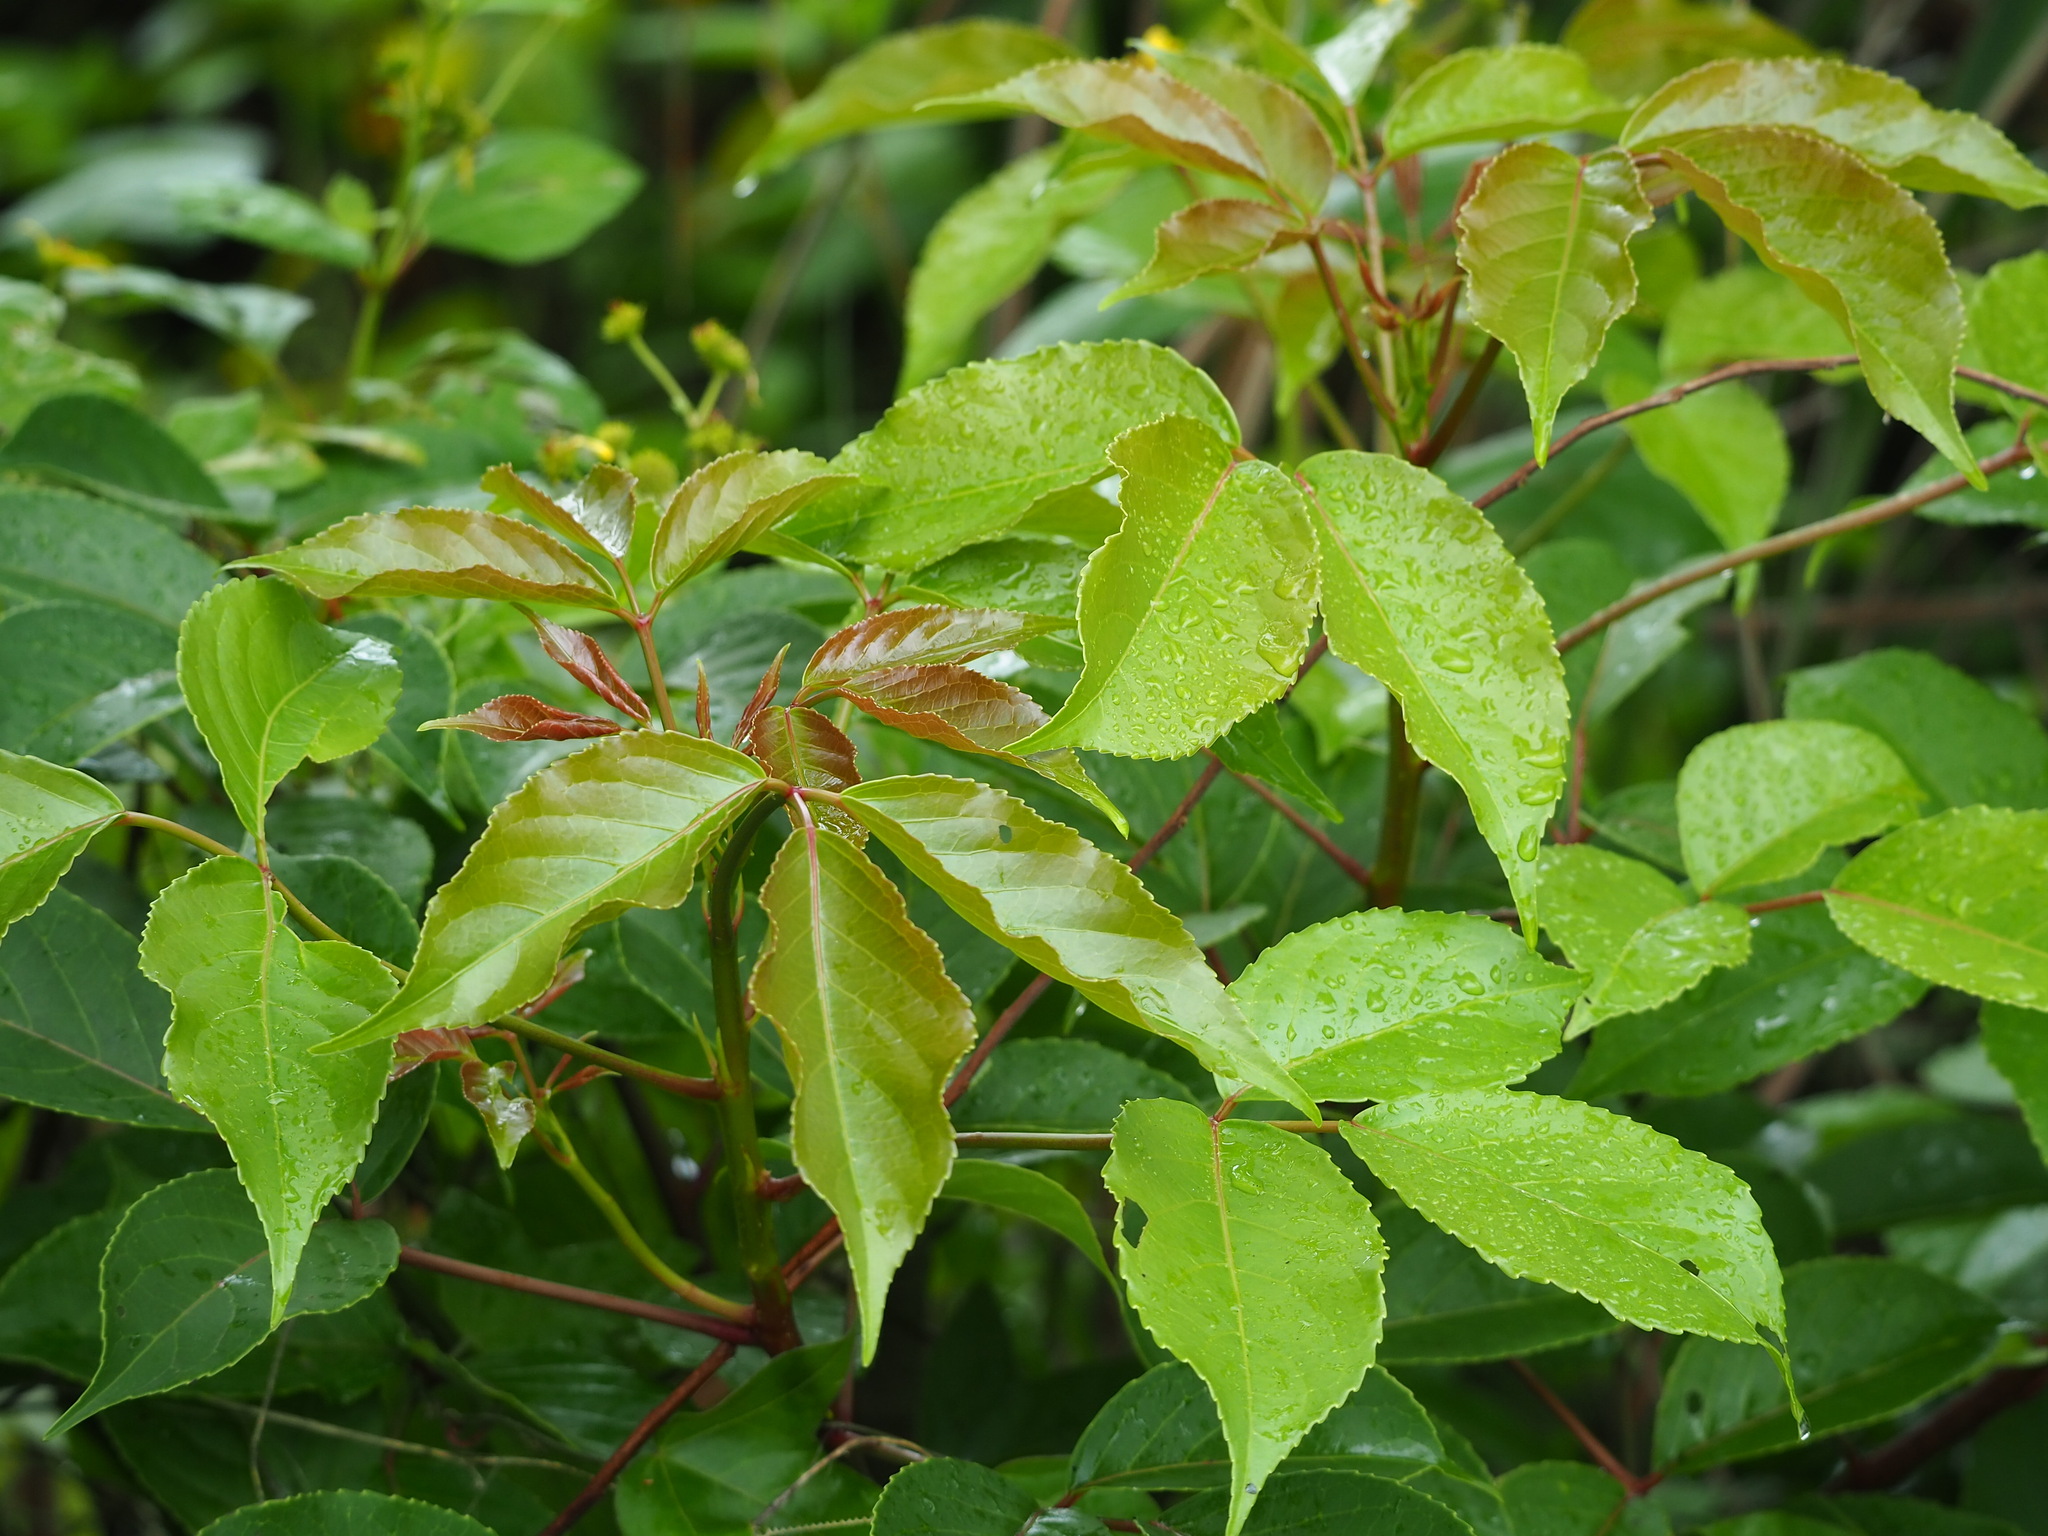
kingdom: Plantae
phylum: Tracheophyta
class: Magnoliopsida
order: Malpighiales
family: Phyllanthaceae
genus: Bischofia
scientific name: Bischofia javanica
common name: Javanese bishopwood
